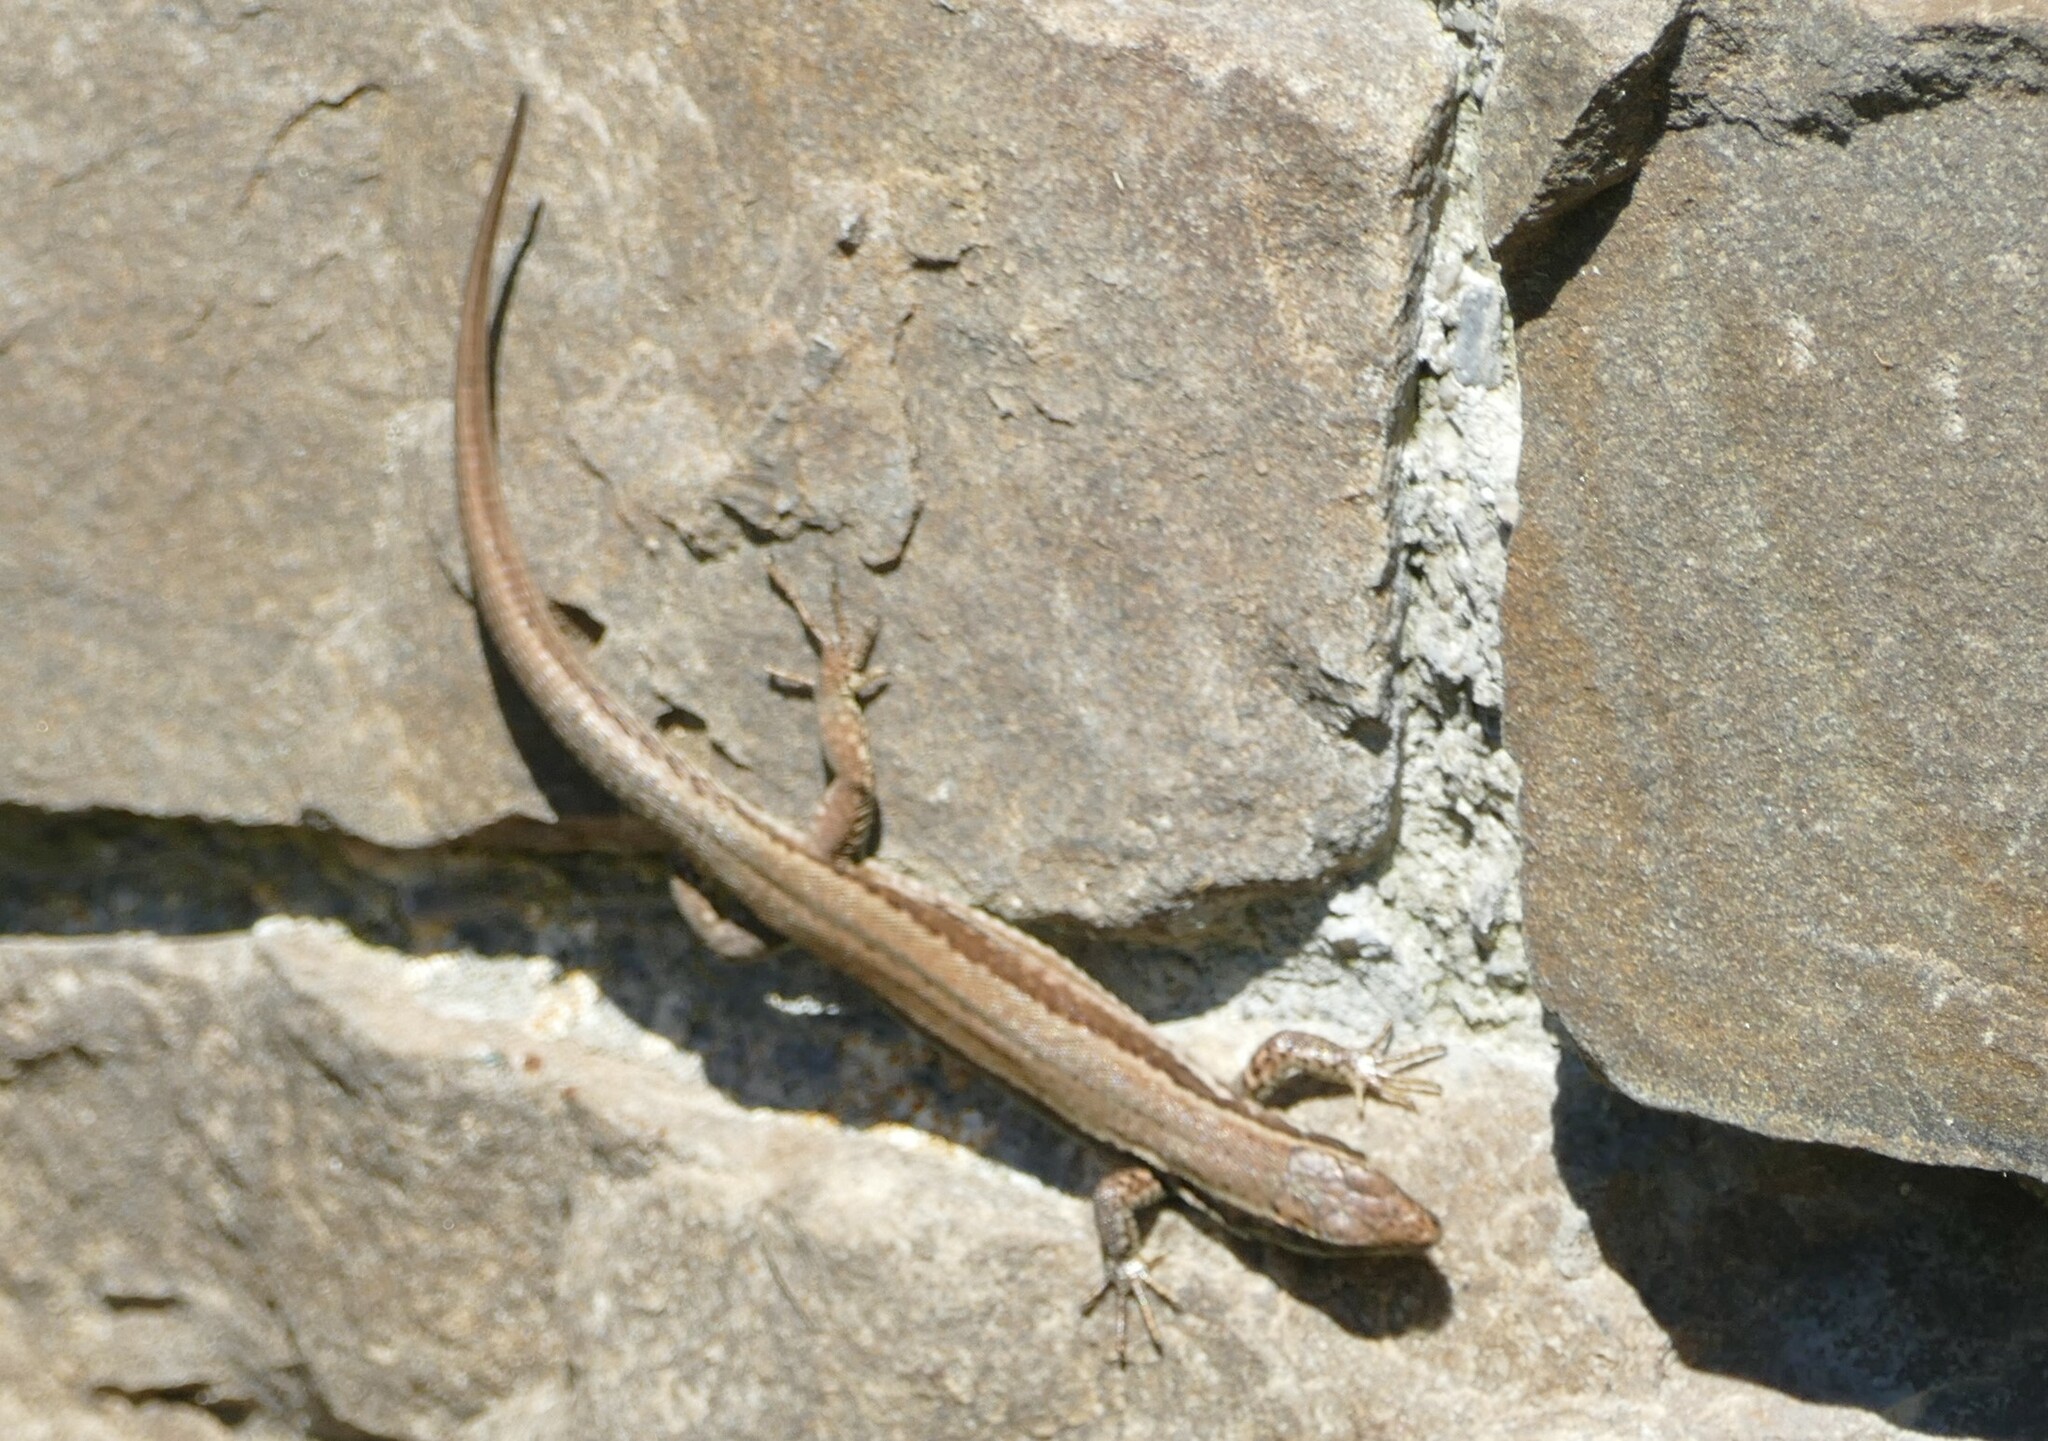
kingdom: Animalia
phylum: Chordata
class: Squamata
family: Lacertidae
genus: Podarcis
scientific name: Podarcis muralis
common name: Common wall lizard
